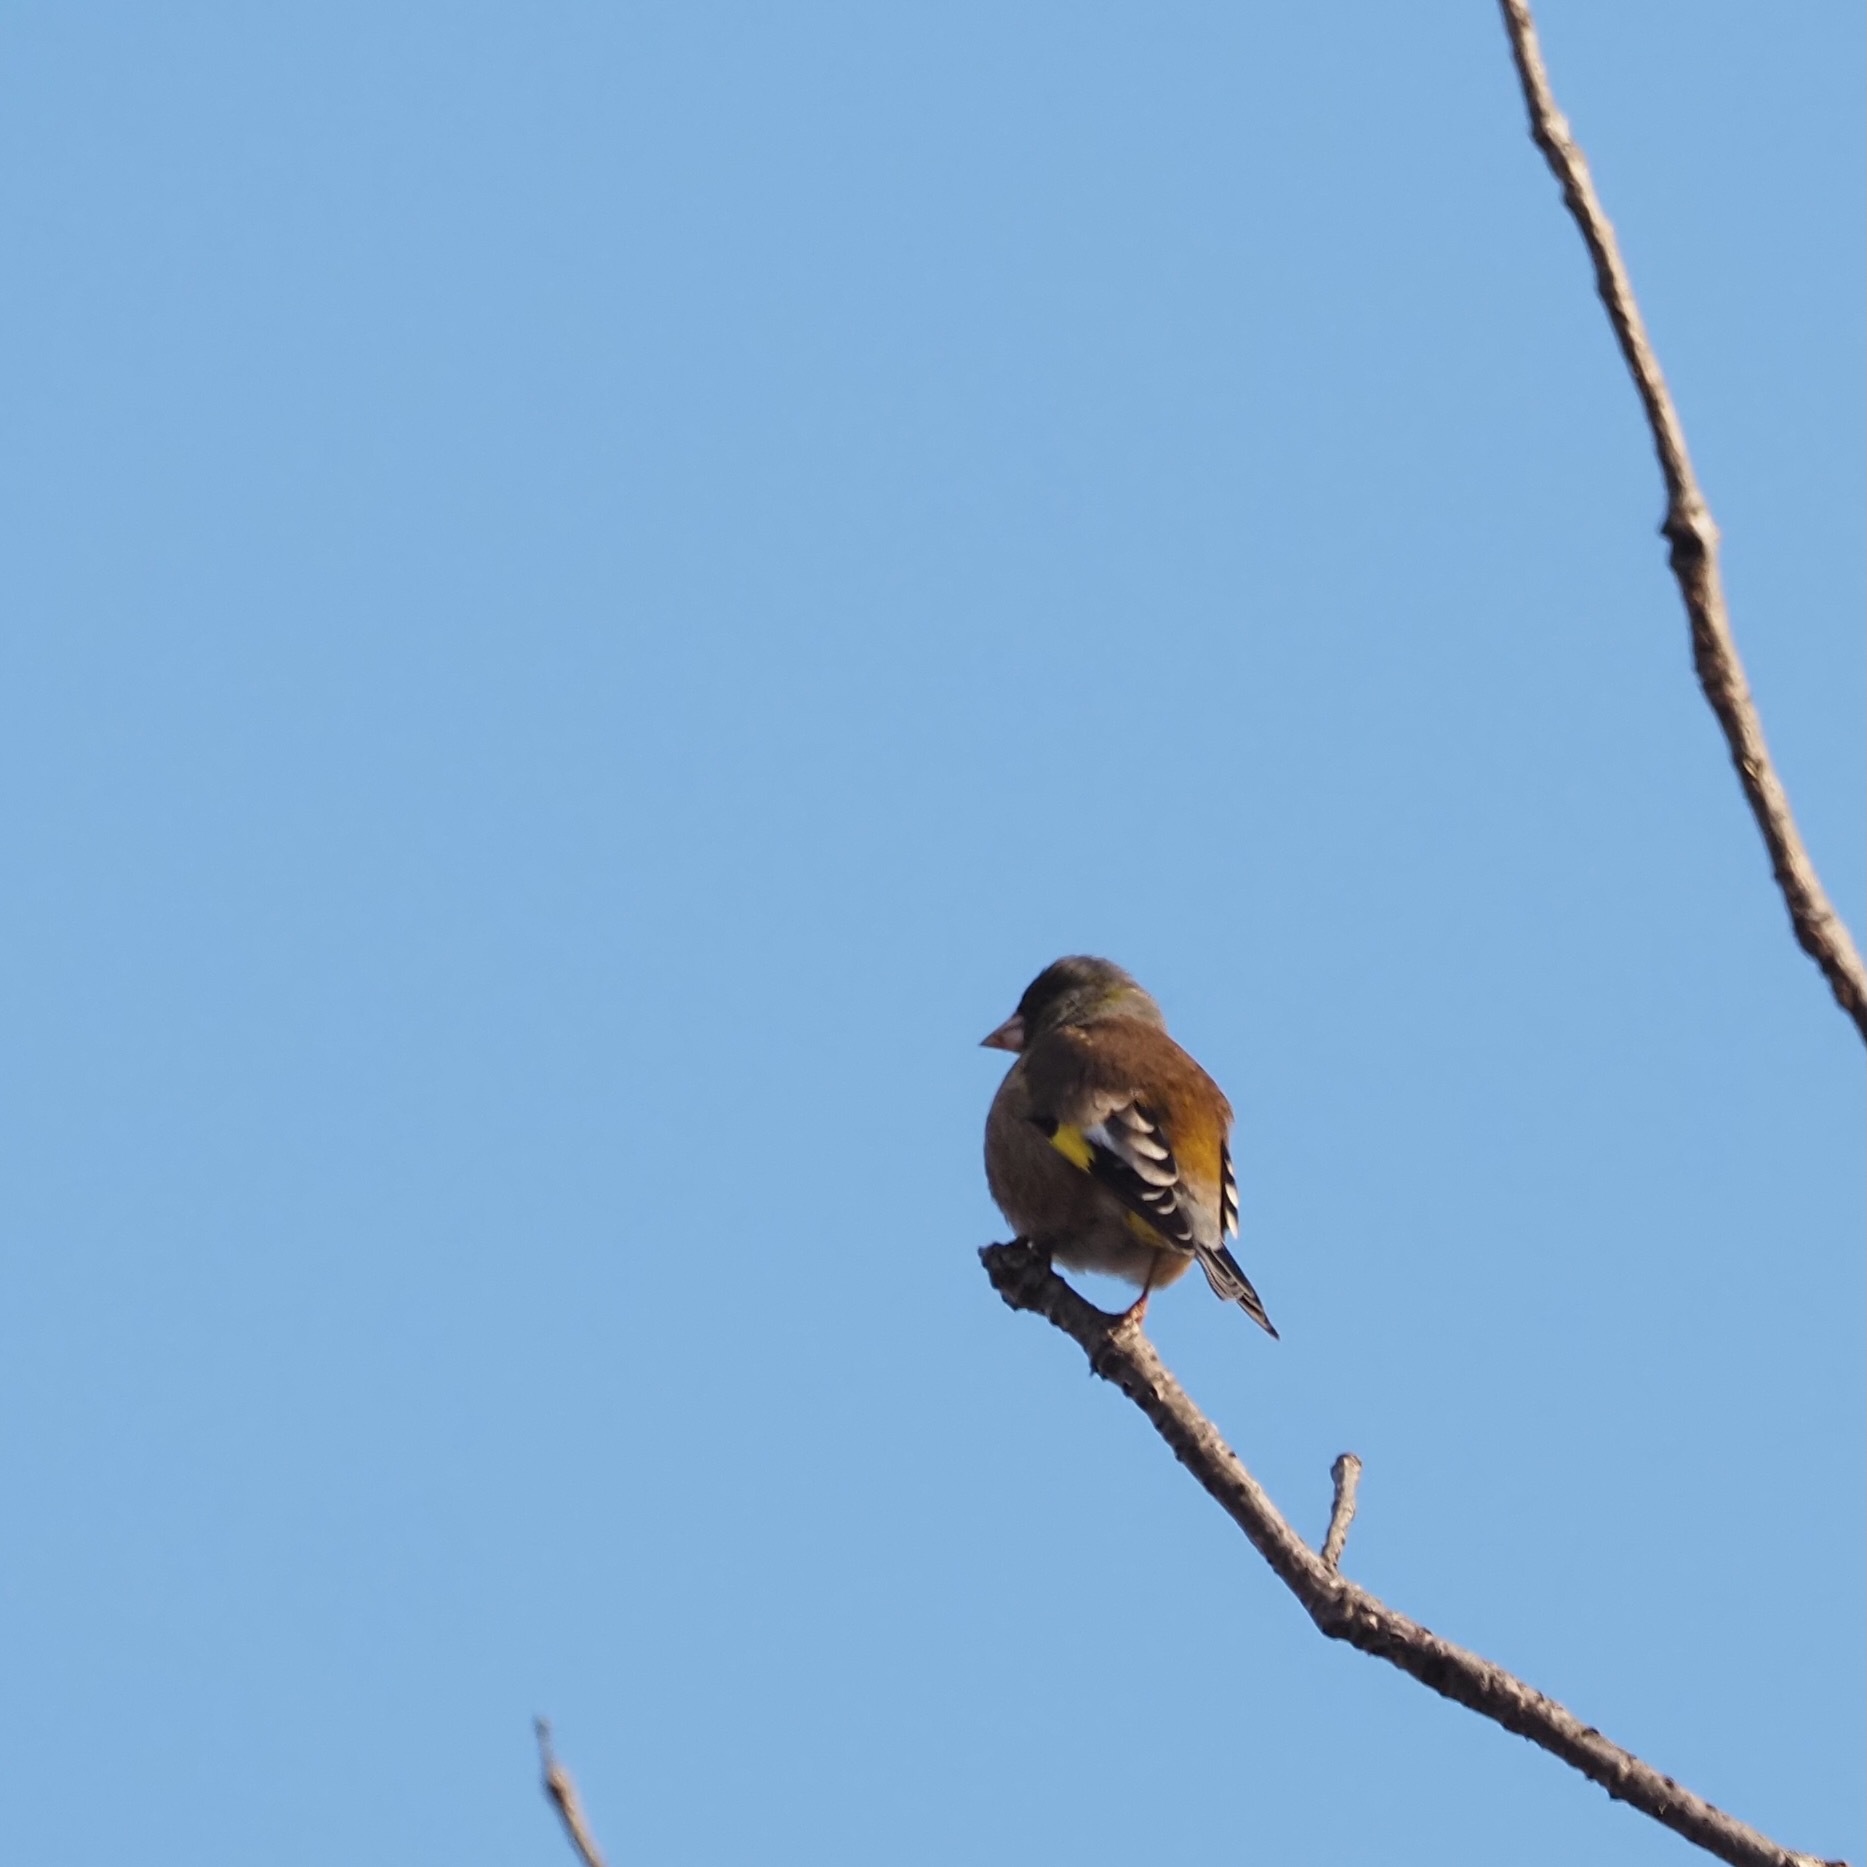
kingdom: Plantae
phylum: Tracheophyta
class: Liliopsida
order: Poales
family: Poaceae
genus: Chloris
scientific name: Chloris sinica
